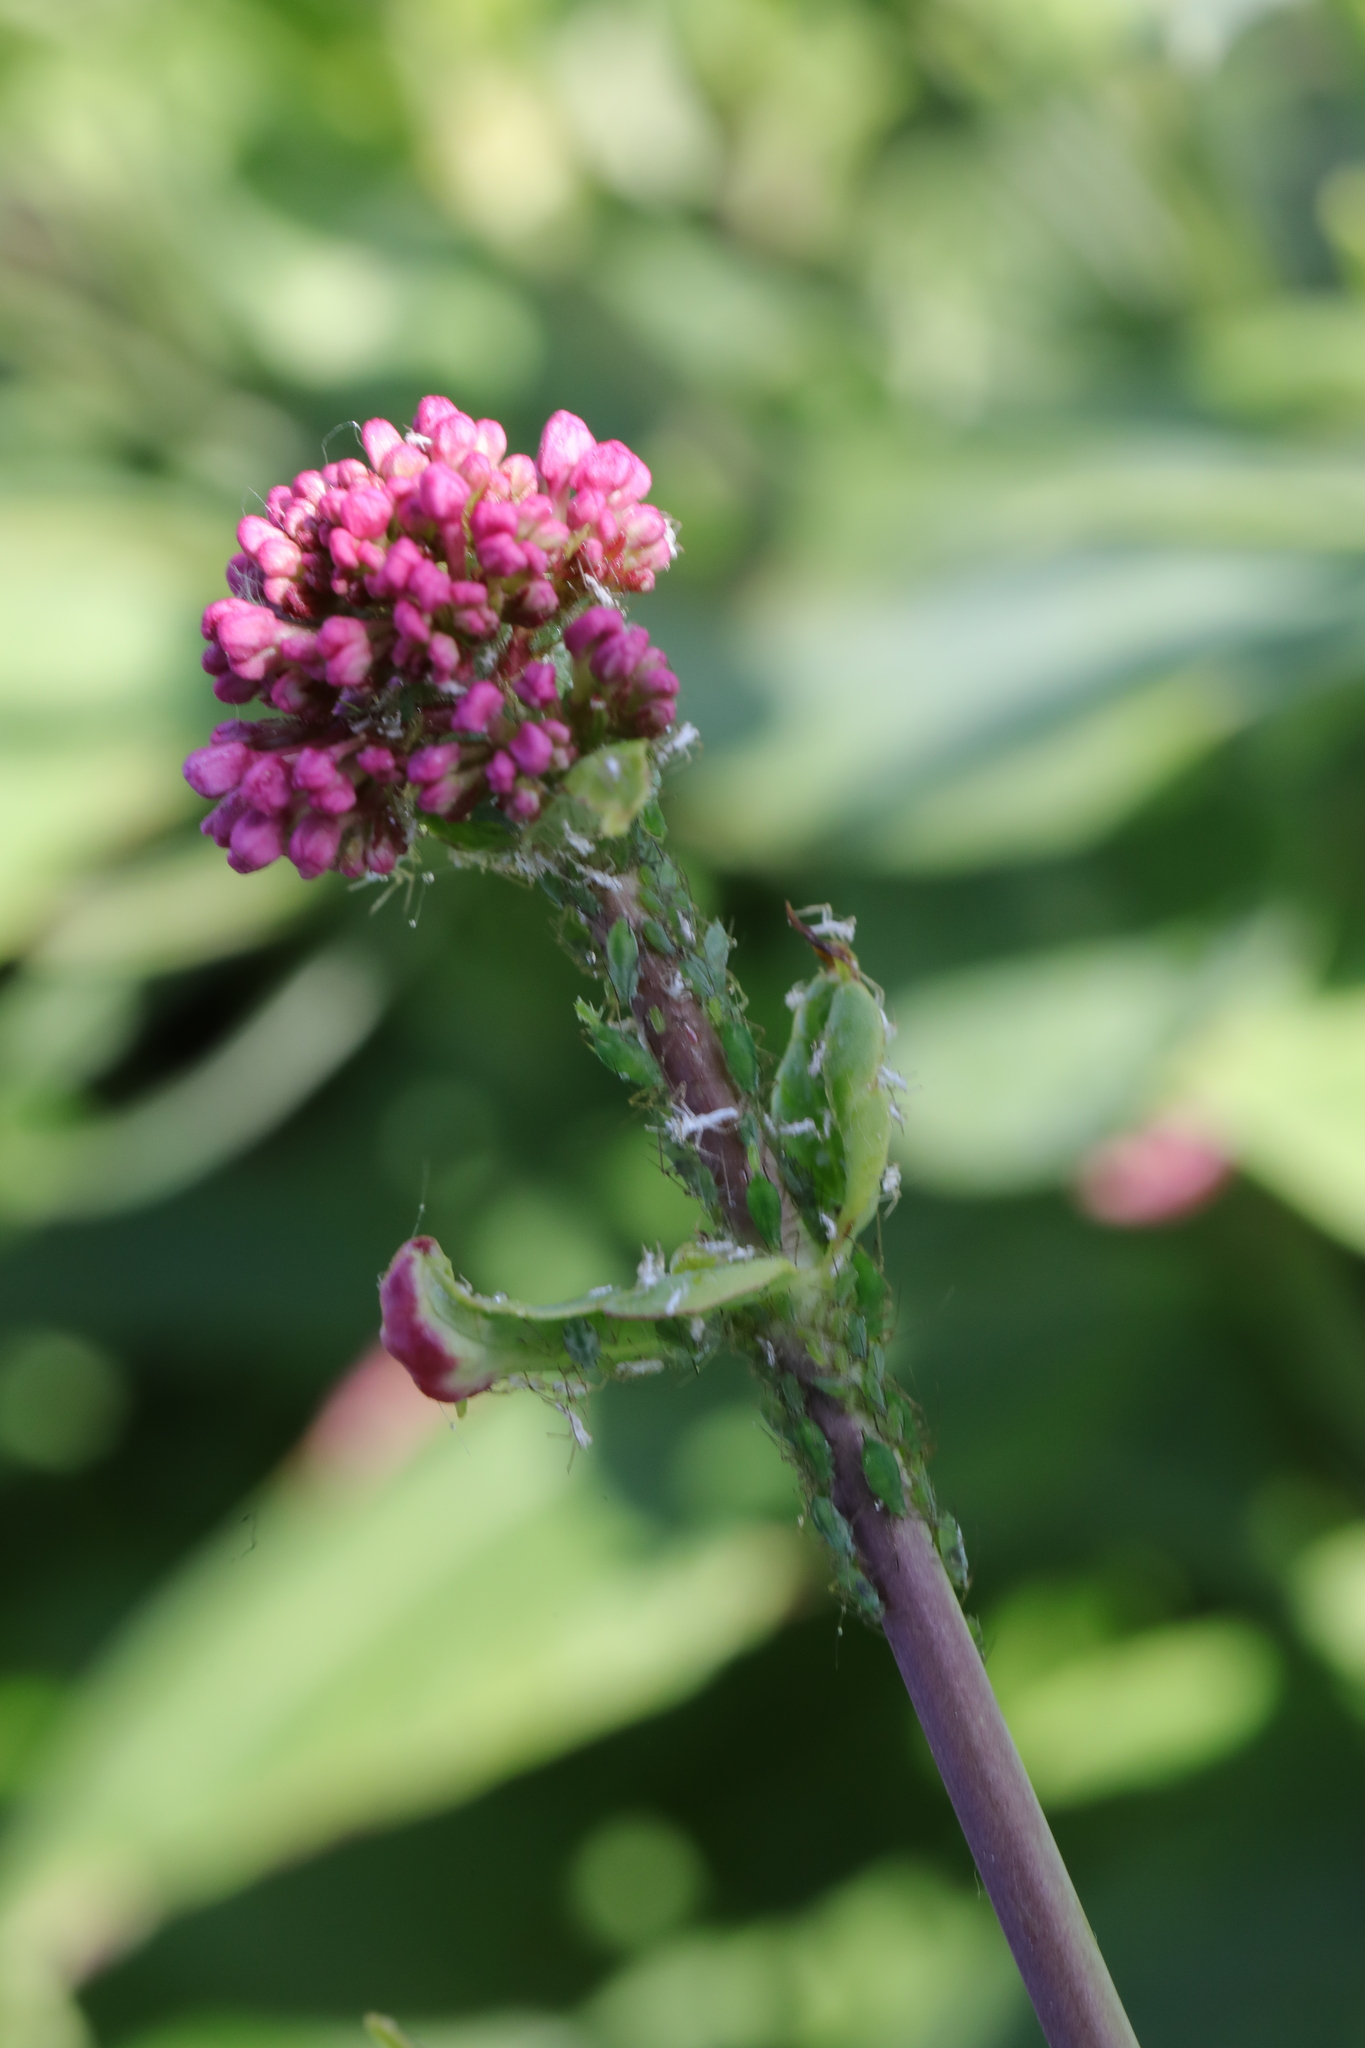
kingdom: Plantae
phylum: Tracheophyta
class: Magnoliopsida
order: Dipsacales
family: Caprifoliaceae
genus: Centranthus
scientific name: Centranthus ruber
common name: Red valerian
